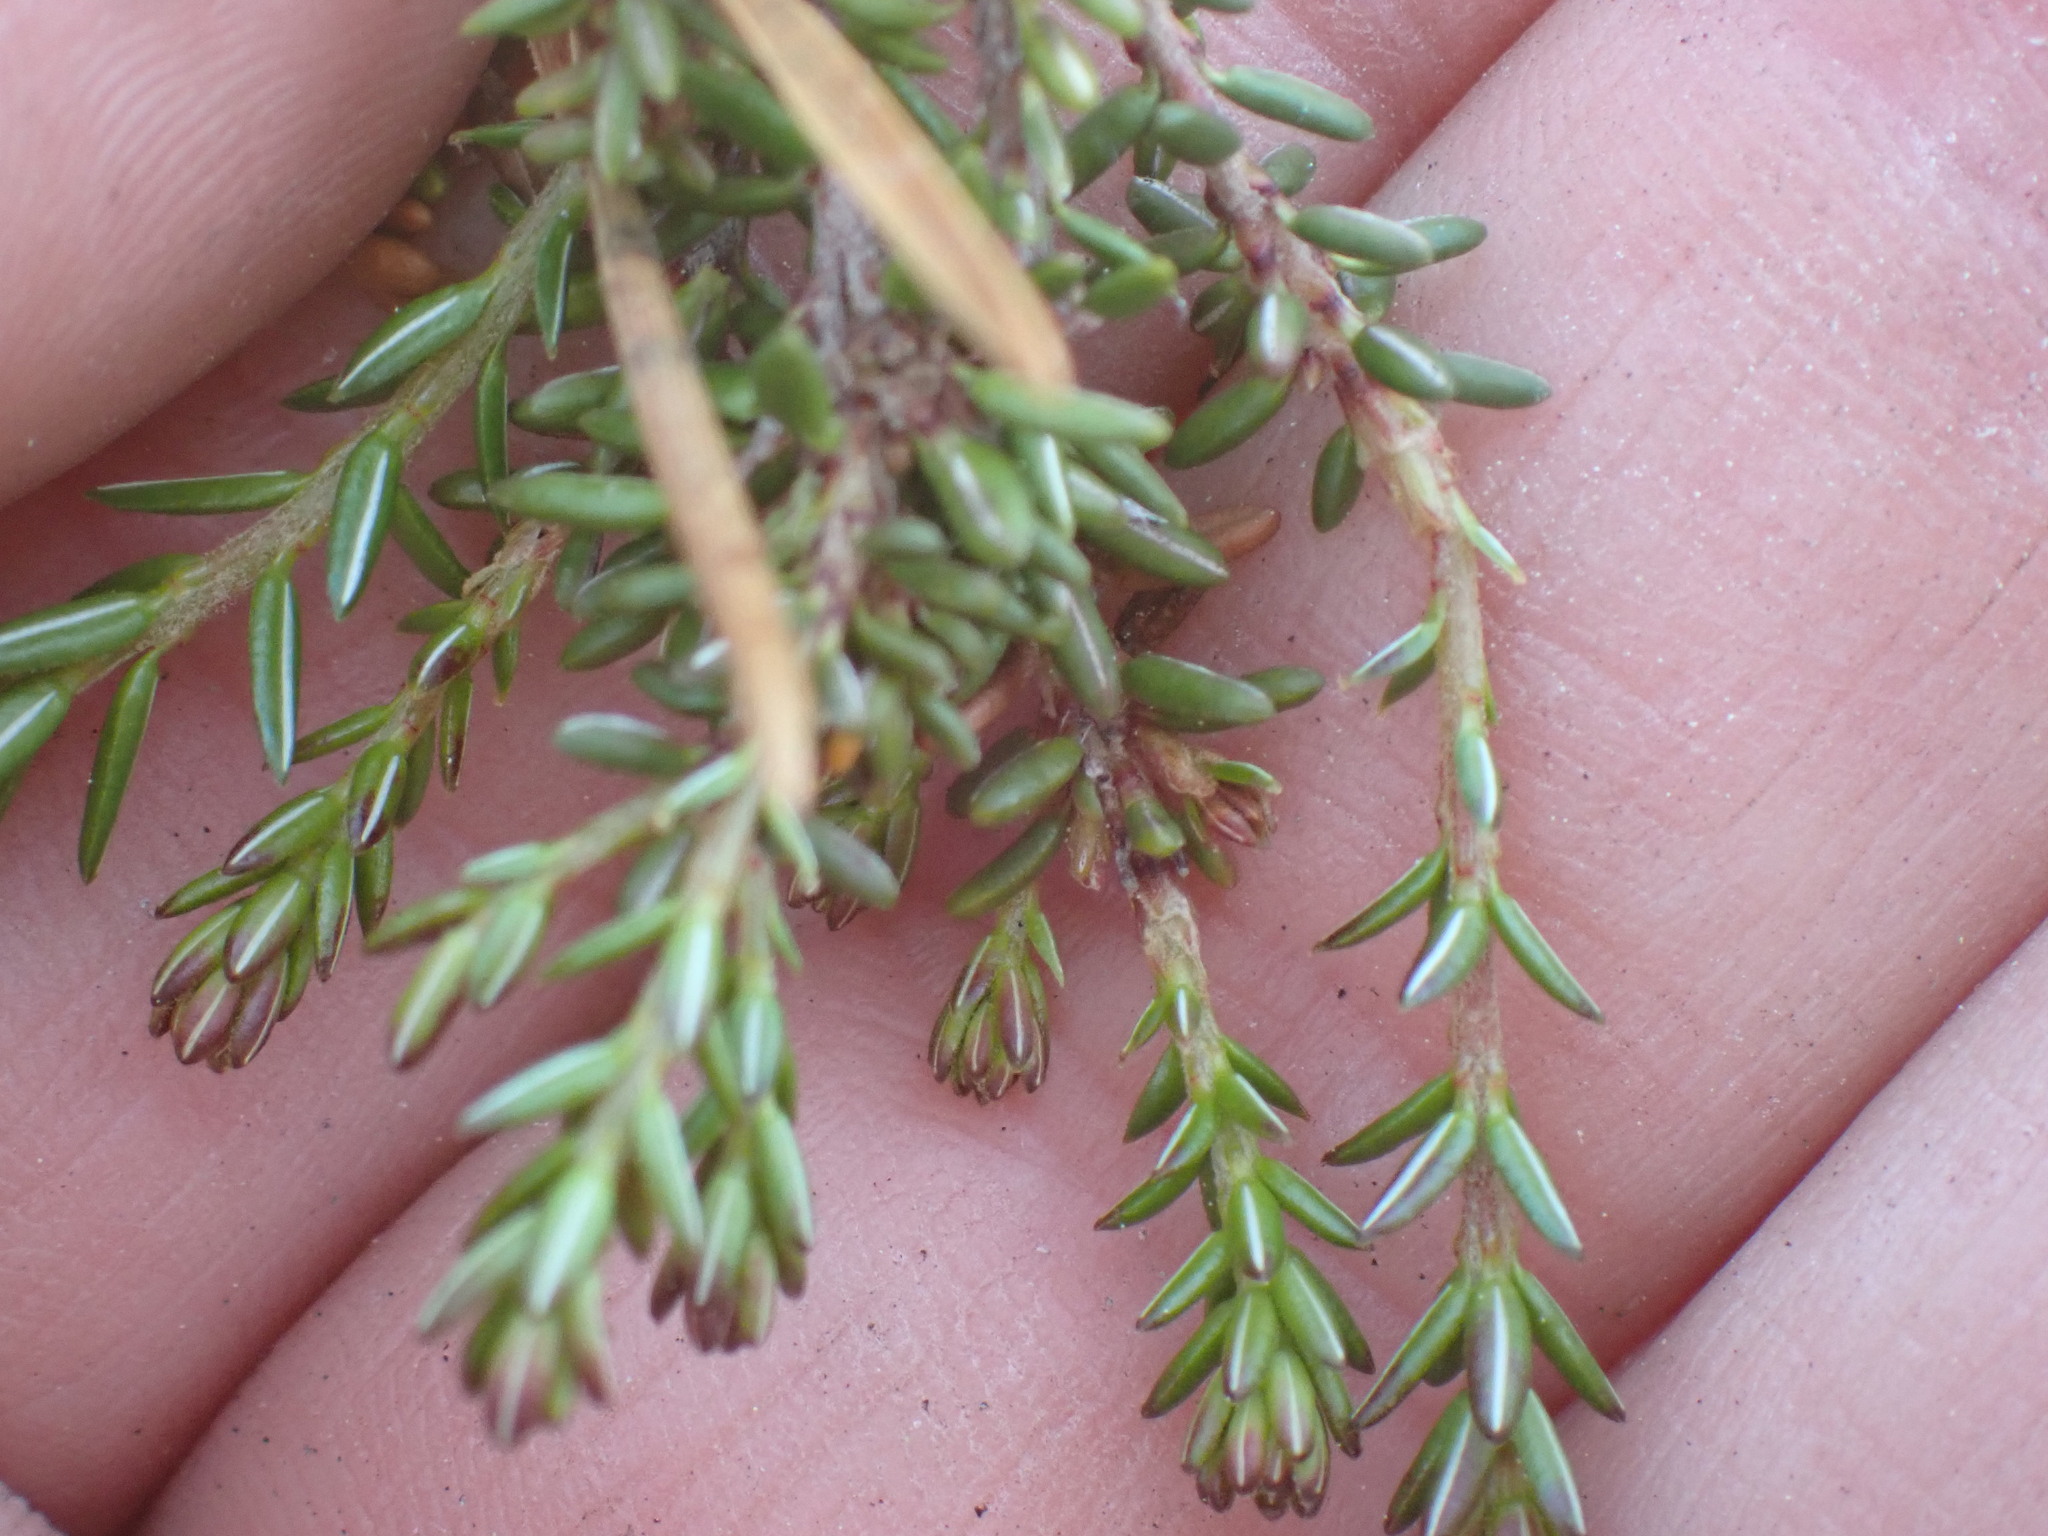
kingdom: Plantae
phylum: Tracheophyta
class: Magnoliopsida
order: Ericales
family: Ericaceae
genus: Empetrum
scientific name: Empetrum nigrum
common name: Black crowberry
